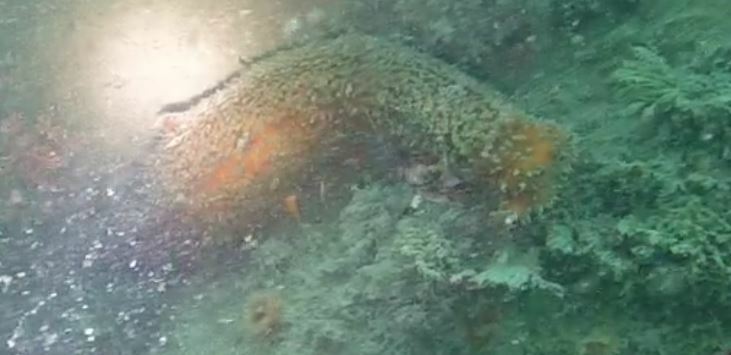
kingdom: Animalia
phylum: Echinodermata
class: Holothuroidea
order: Synallactida
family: Stichopodidae
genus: Apostichopus
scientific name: Apostichopus parvimensis
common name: Warty sea cucumber
